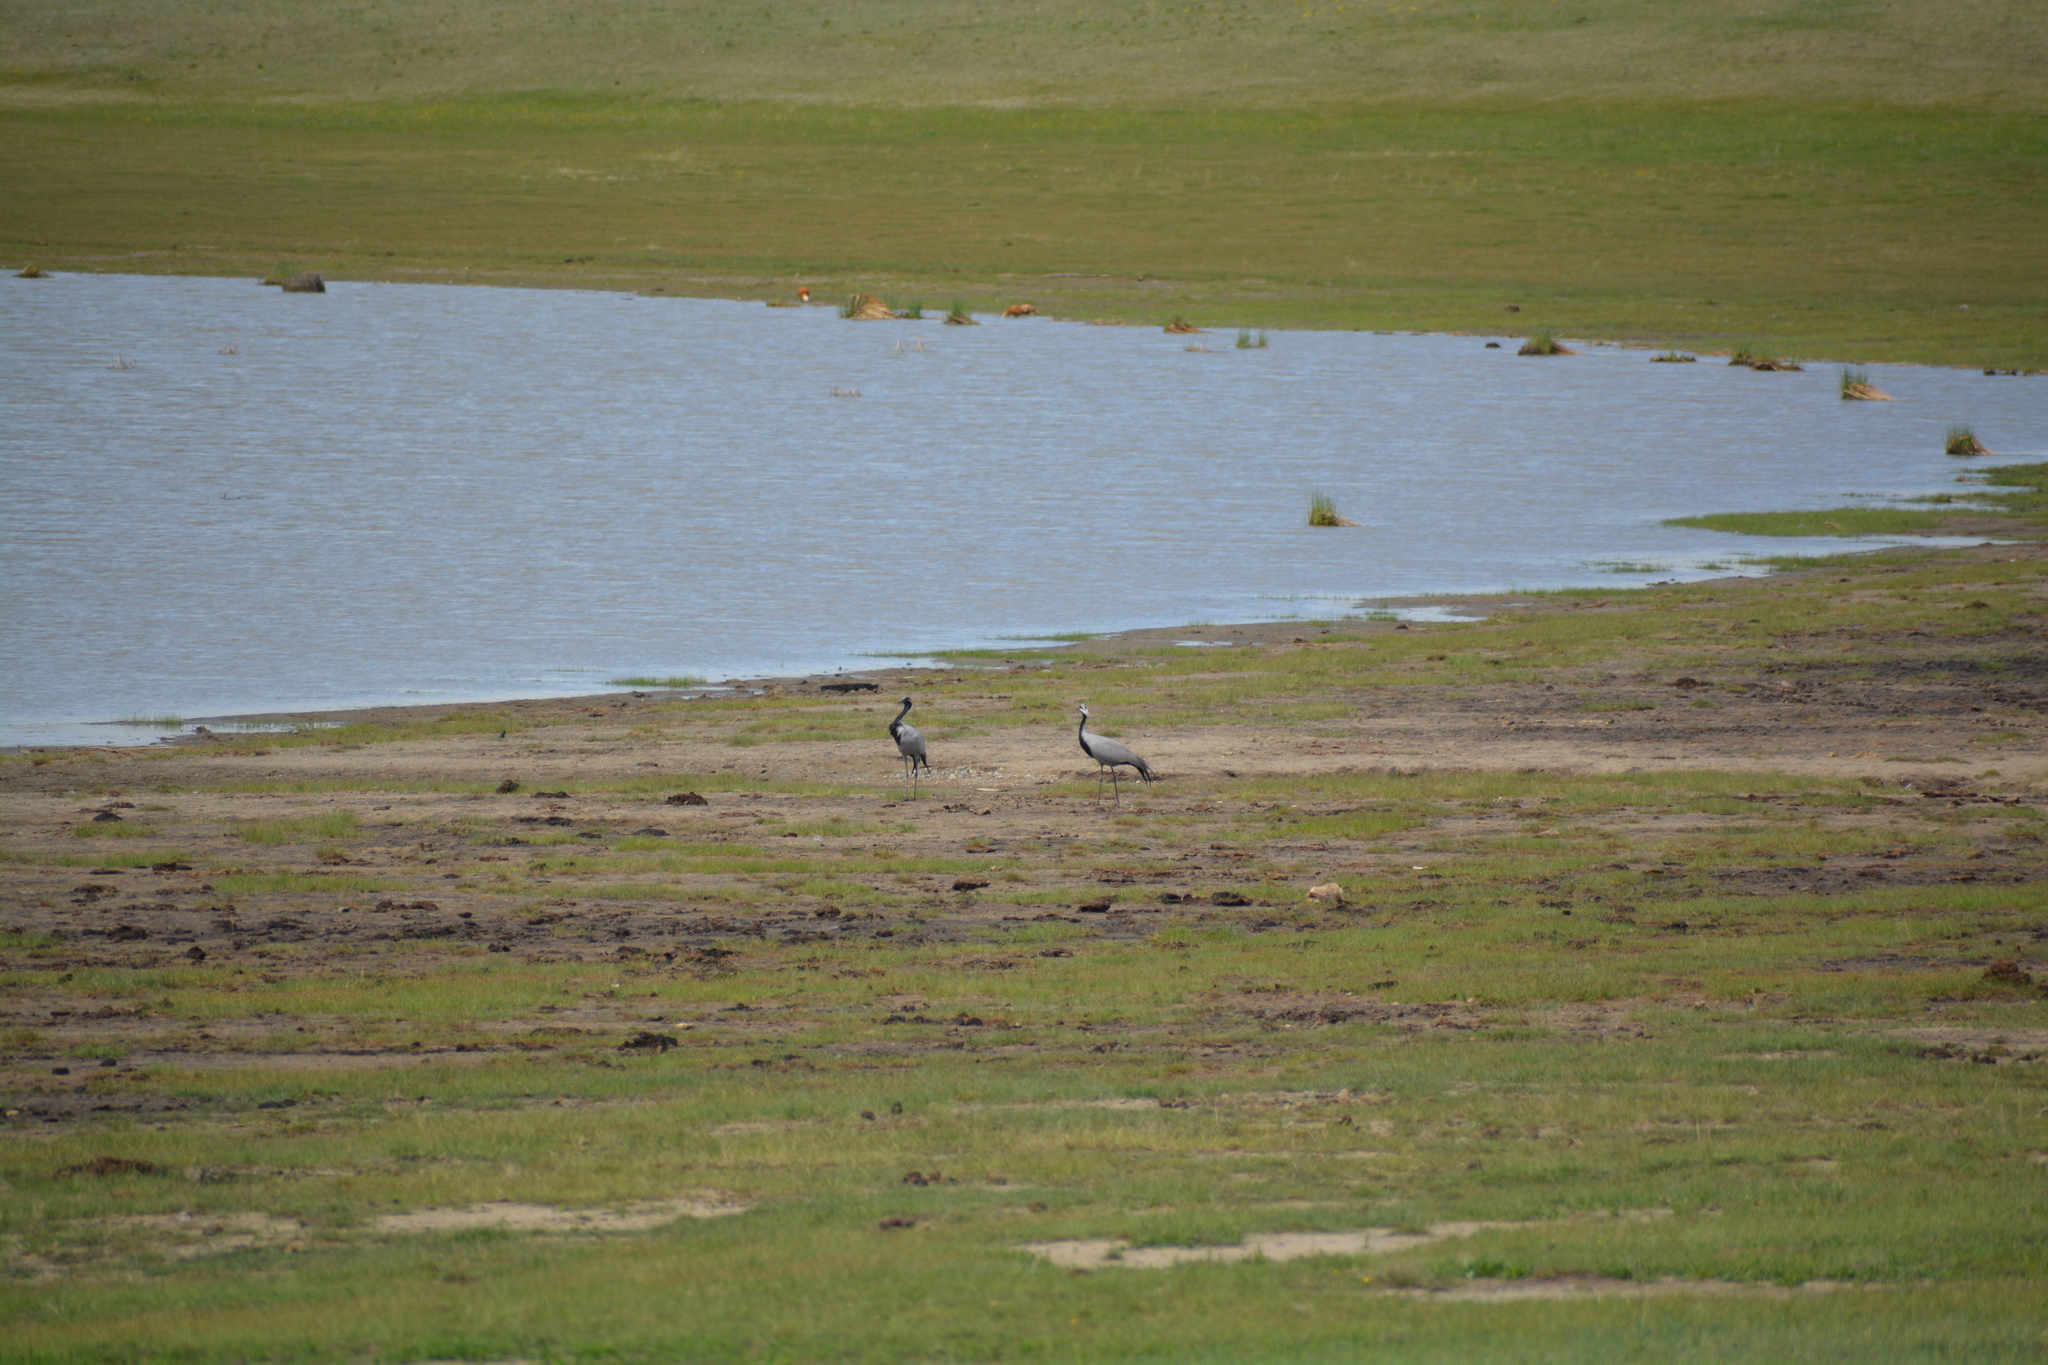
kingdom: Animalia
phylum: Chordata
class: Aves
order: Gruiformes
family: Gruidae
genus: Anthropoides
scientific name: Anthropoides virgo
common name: Demoiselle crane
